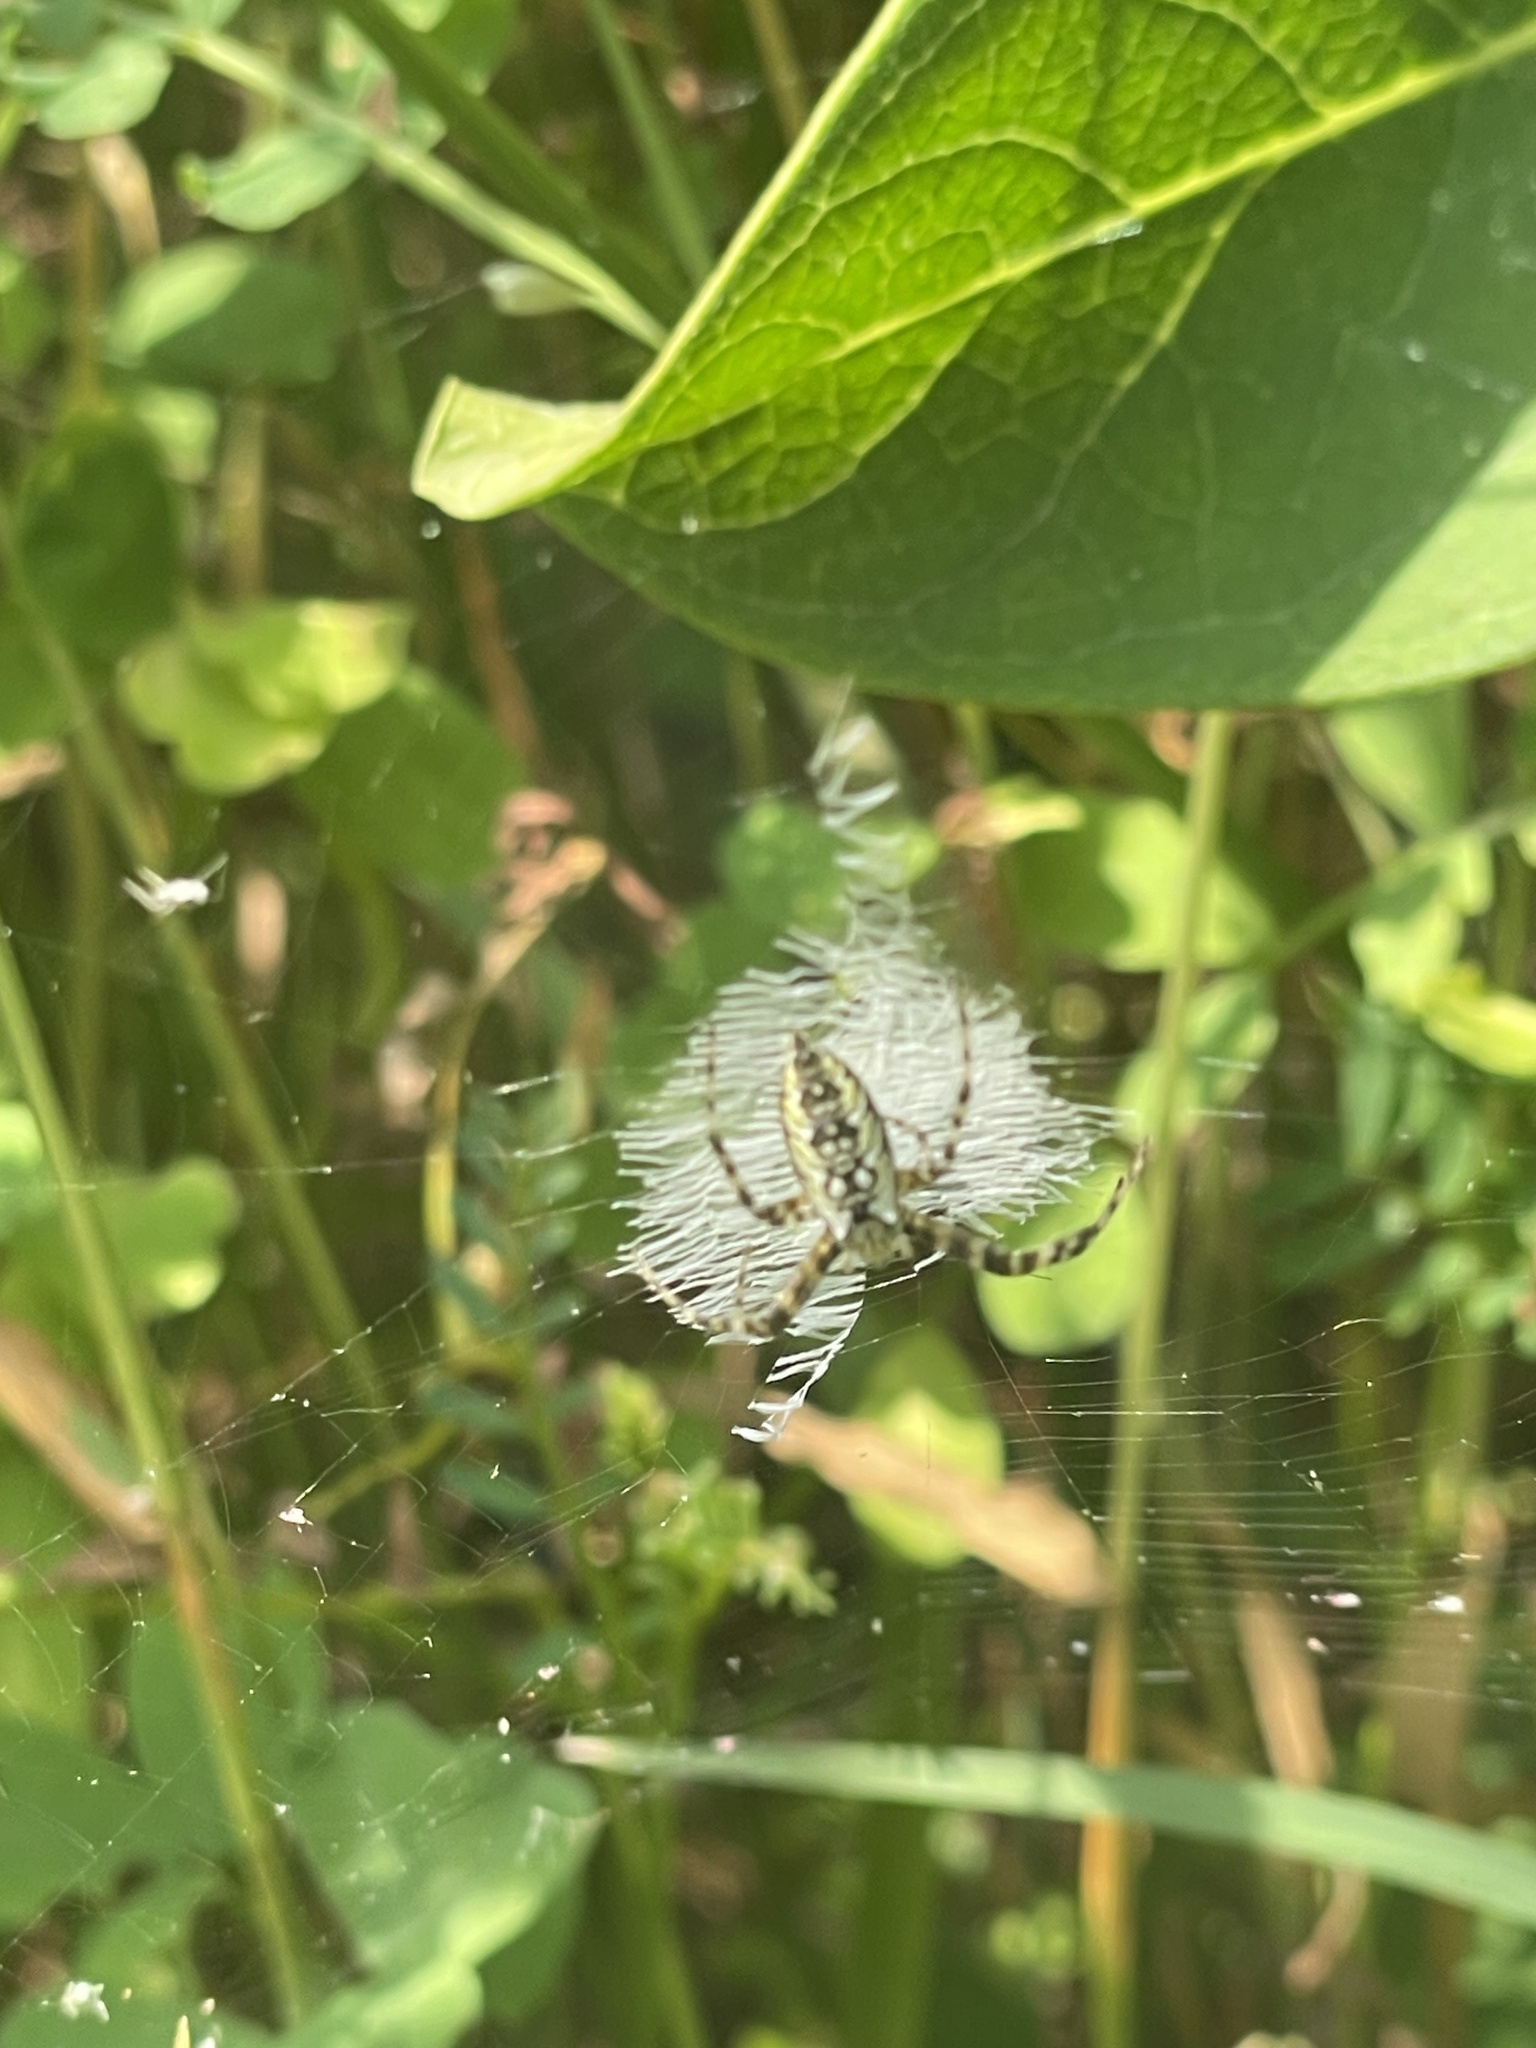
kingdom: Animalia
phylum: Arthropoda
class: Arachnida
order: Araneae
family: Araneidae
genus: Argiope
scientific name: Argiope aurantia
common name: Orb weavers
